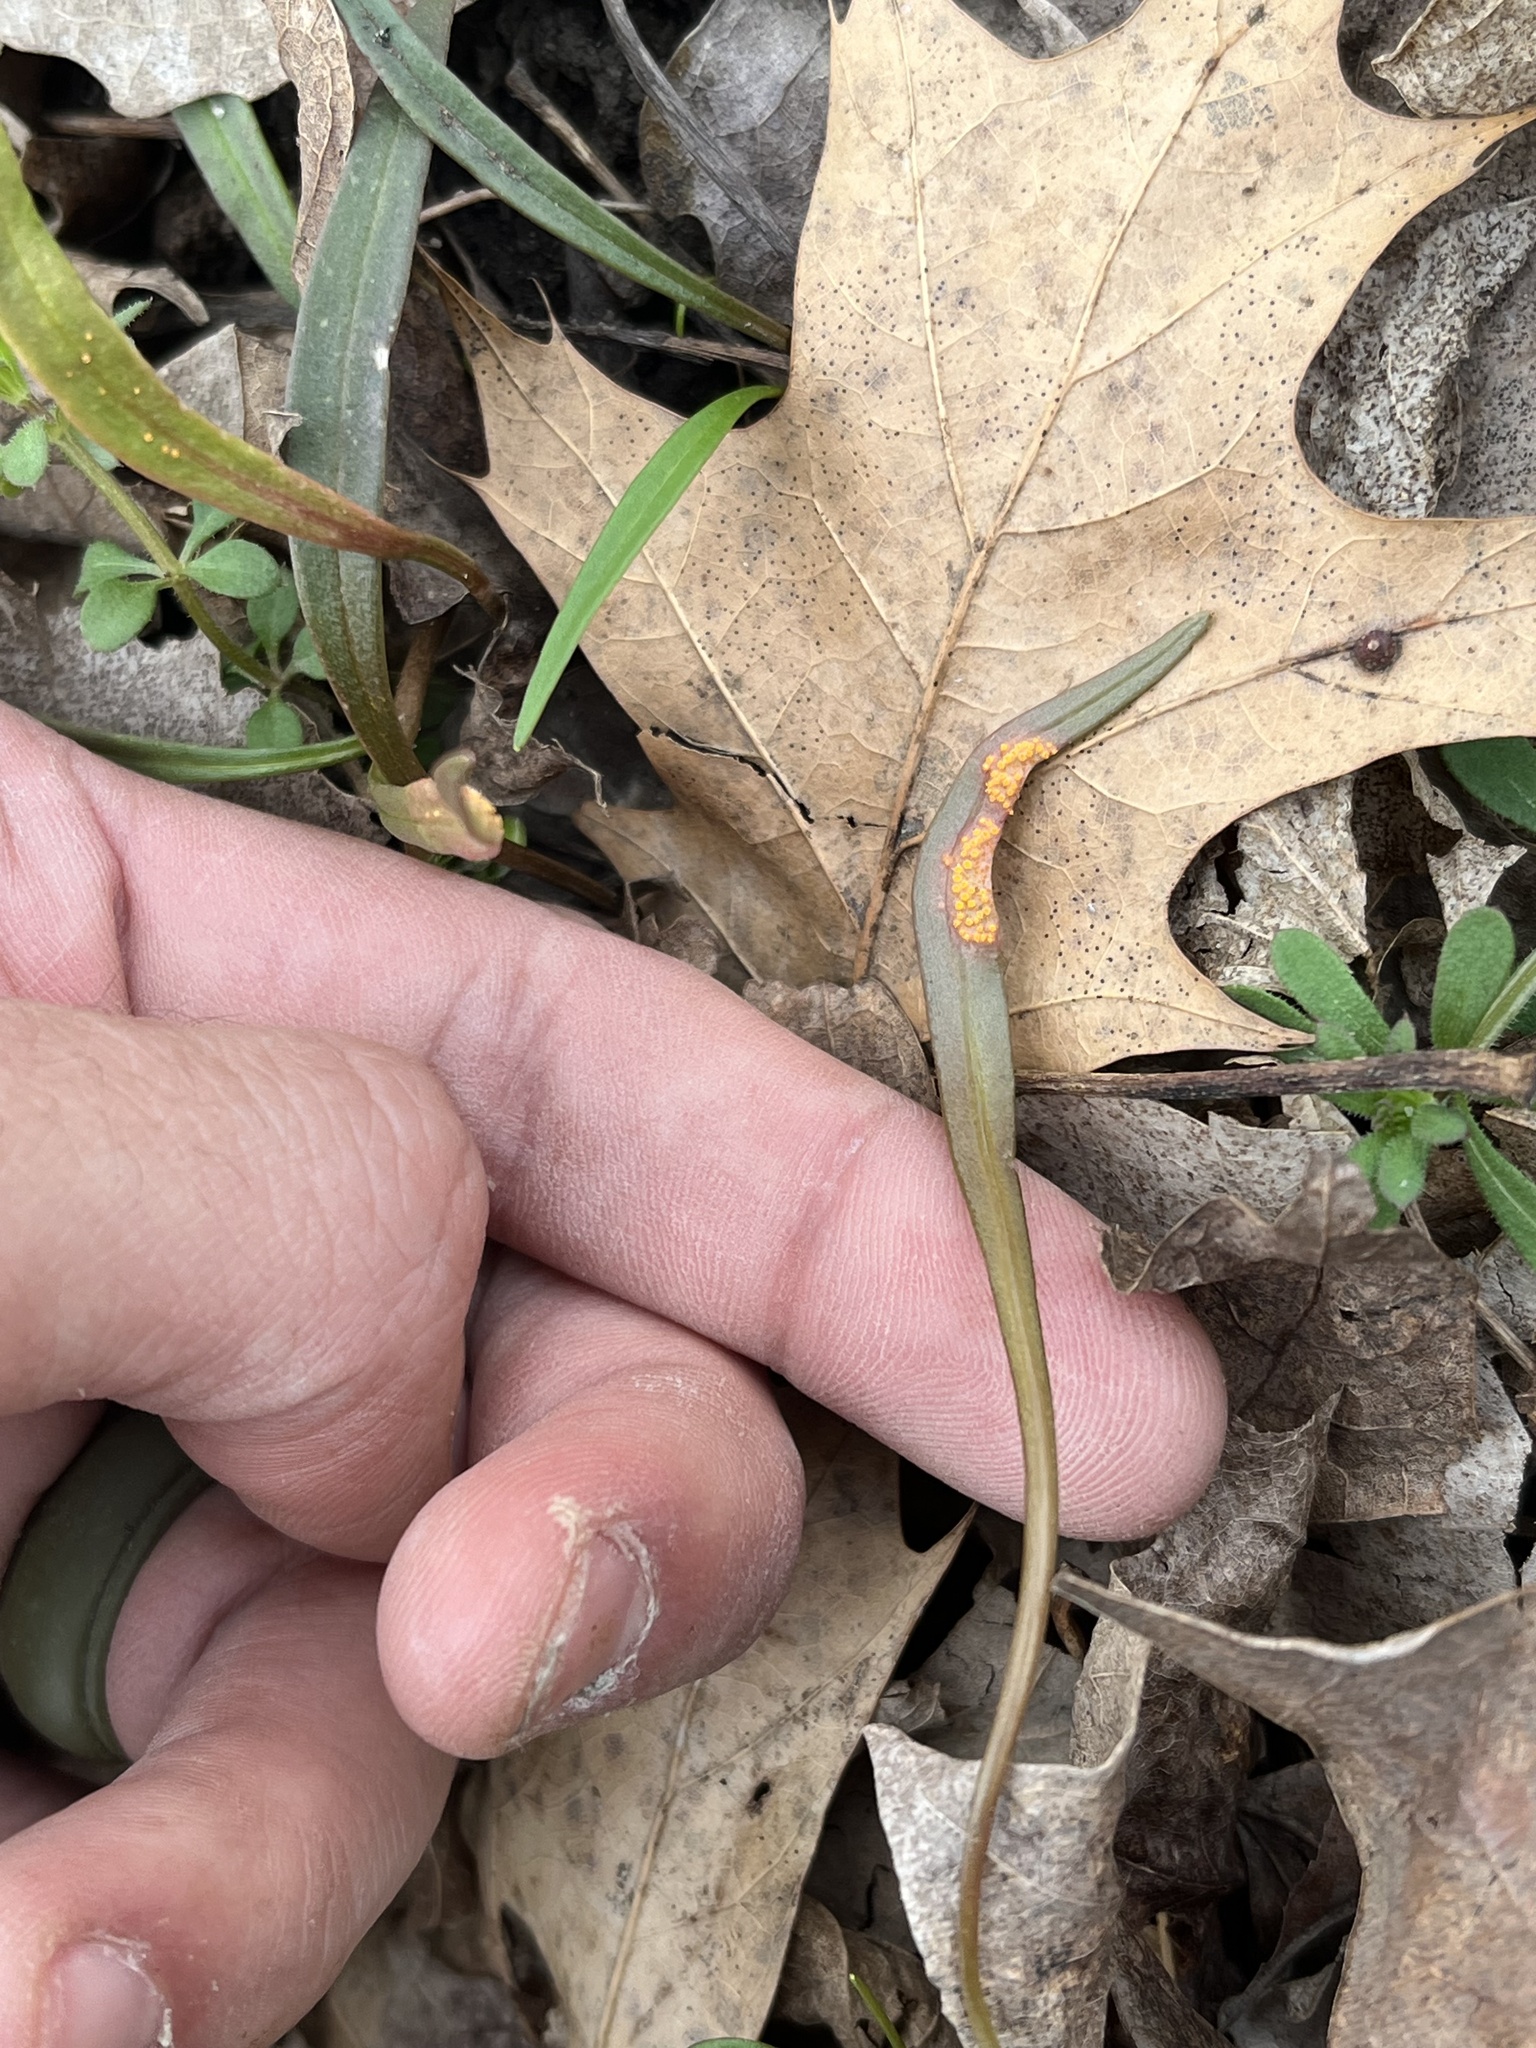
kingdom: Fungi
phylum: Basidiomycota
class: Pucciniomycetes
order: Pucciniales
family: Pucciniaceae
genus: Puccinia
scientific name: Puccinia mariae-wilsoniae
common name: Spring beauty rust
